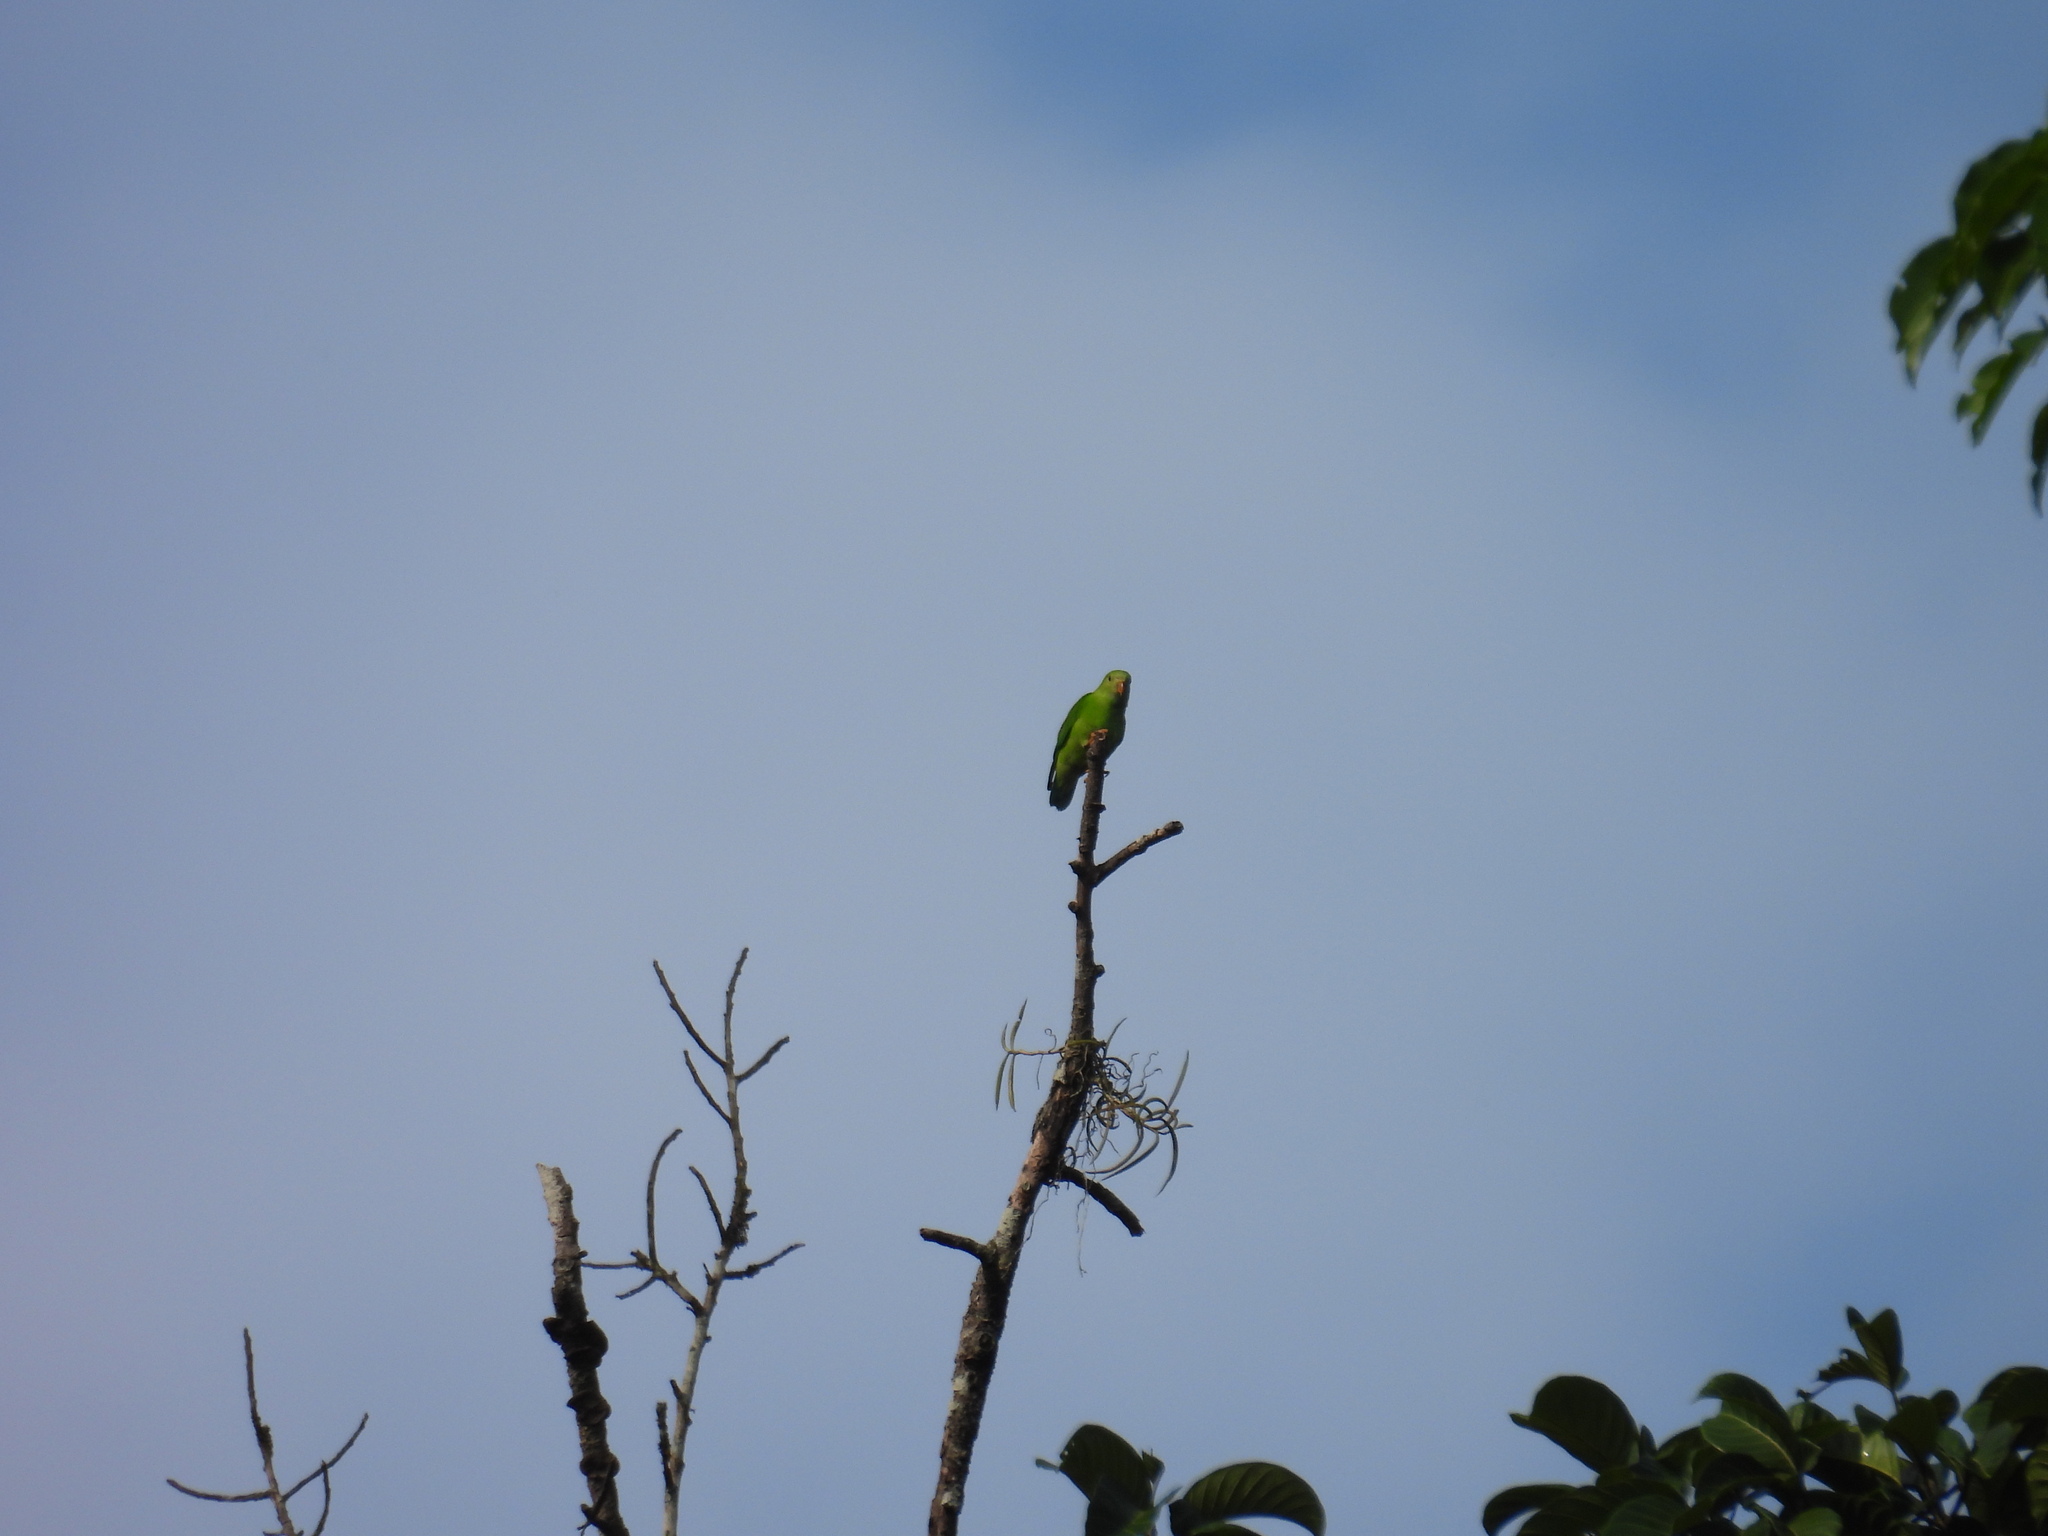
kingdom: Animalia
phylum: Chordata
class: Aves
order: Psittaciformes
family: Psittacidae
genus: Loriculus
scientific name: Loriculus vernalis
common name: Vernal hanging parrot
